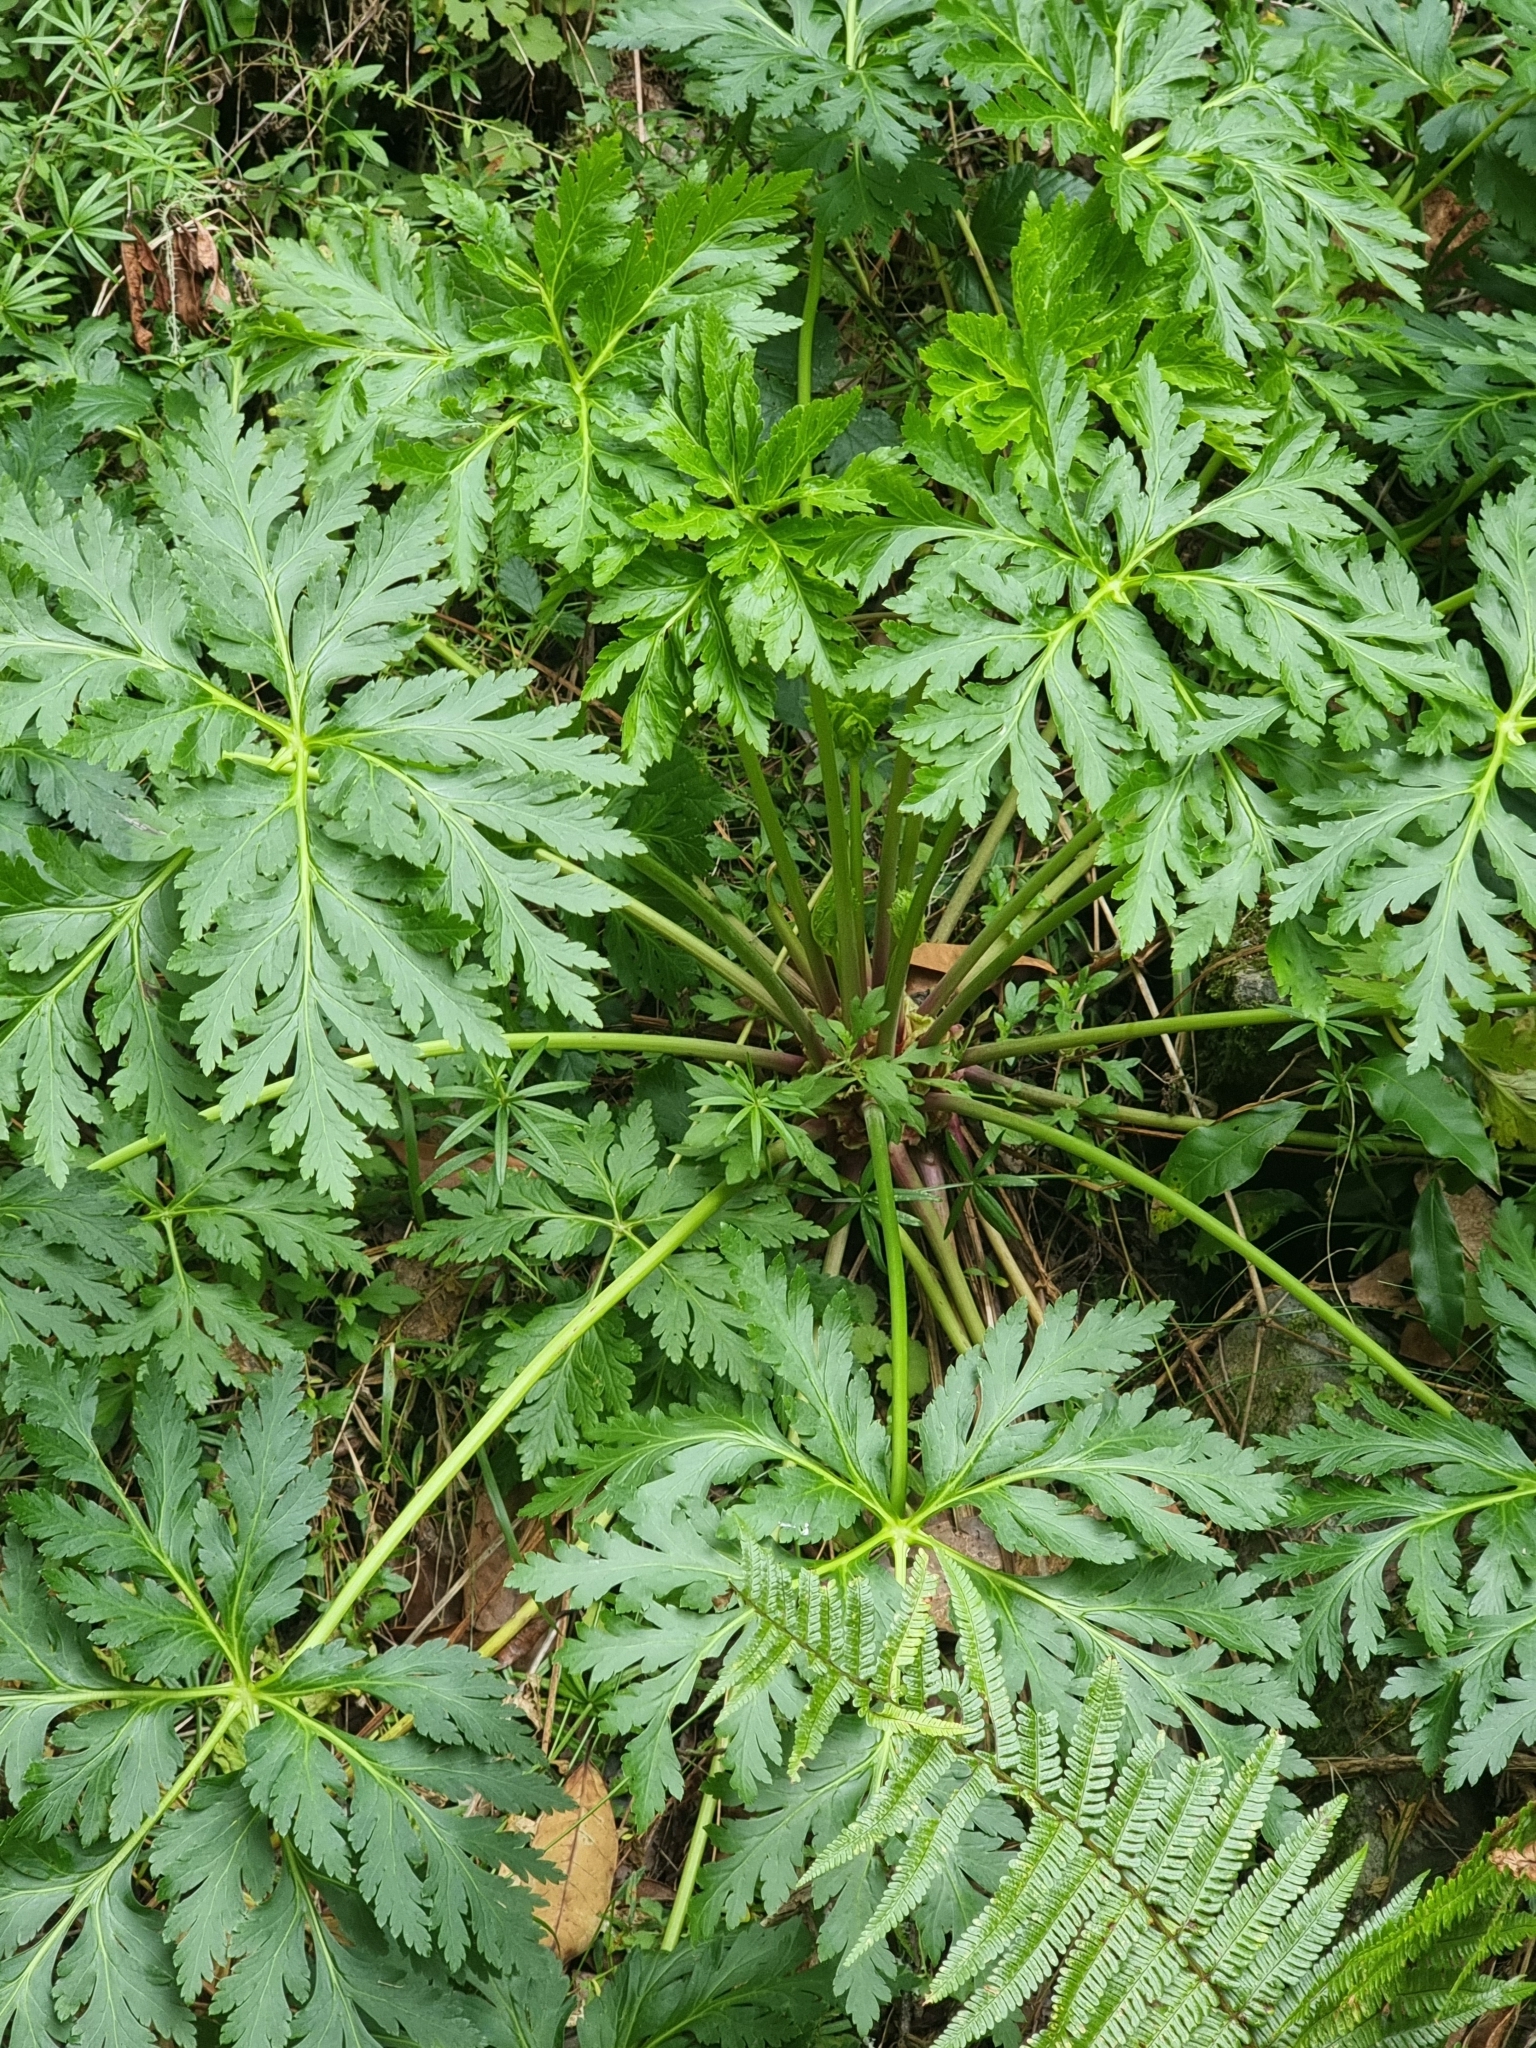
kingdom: Plantae
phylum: Tracheophyta
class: Magnoliopsida
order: Geraniales
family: Geraniaceae
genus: Geranium
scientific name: Geranium palmatum
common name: Canary island geranium
